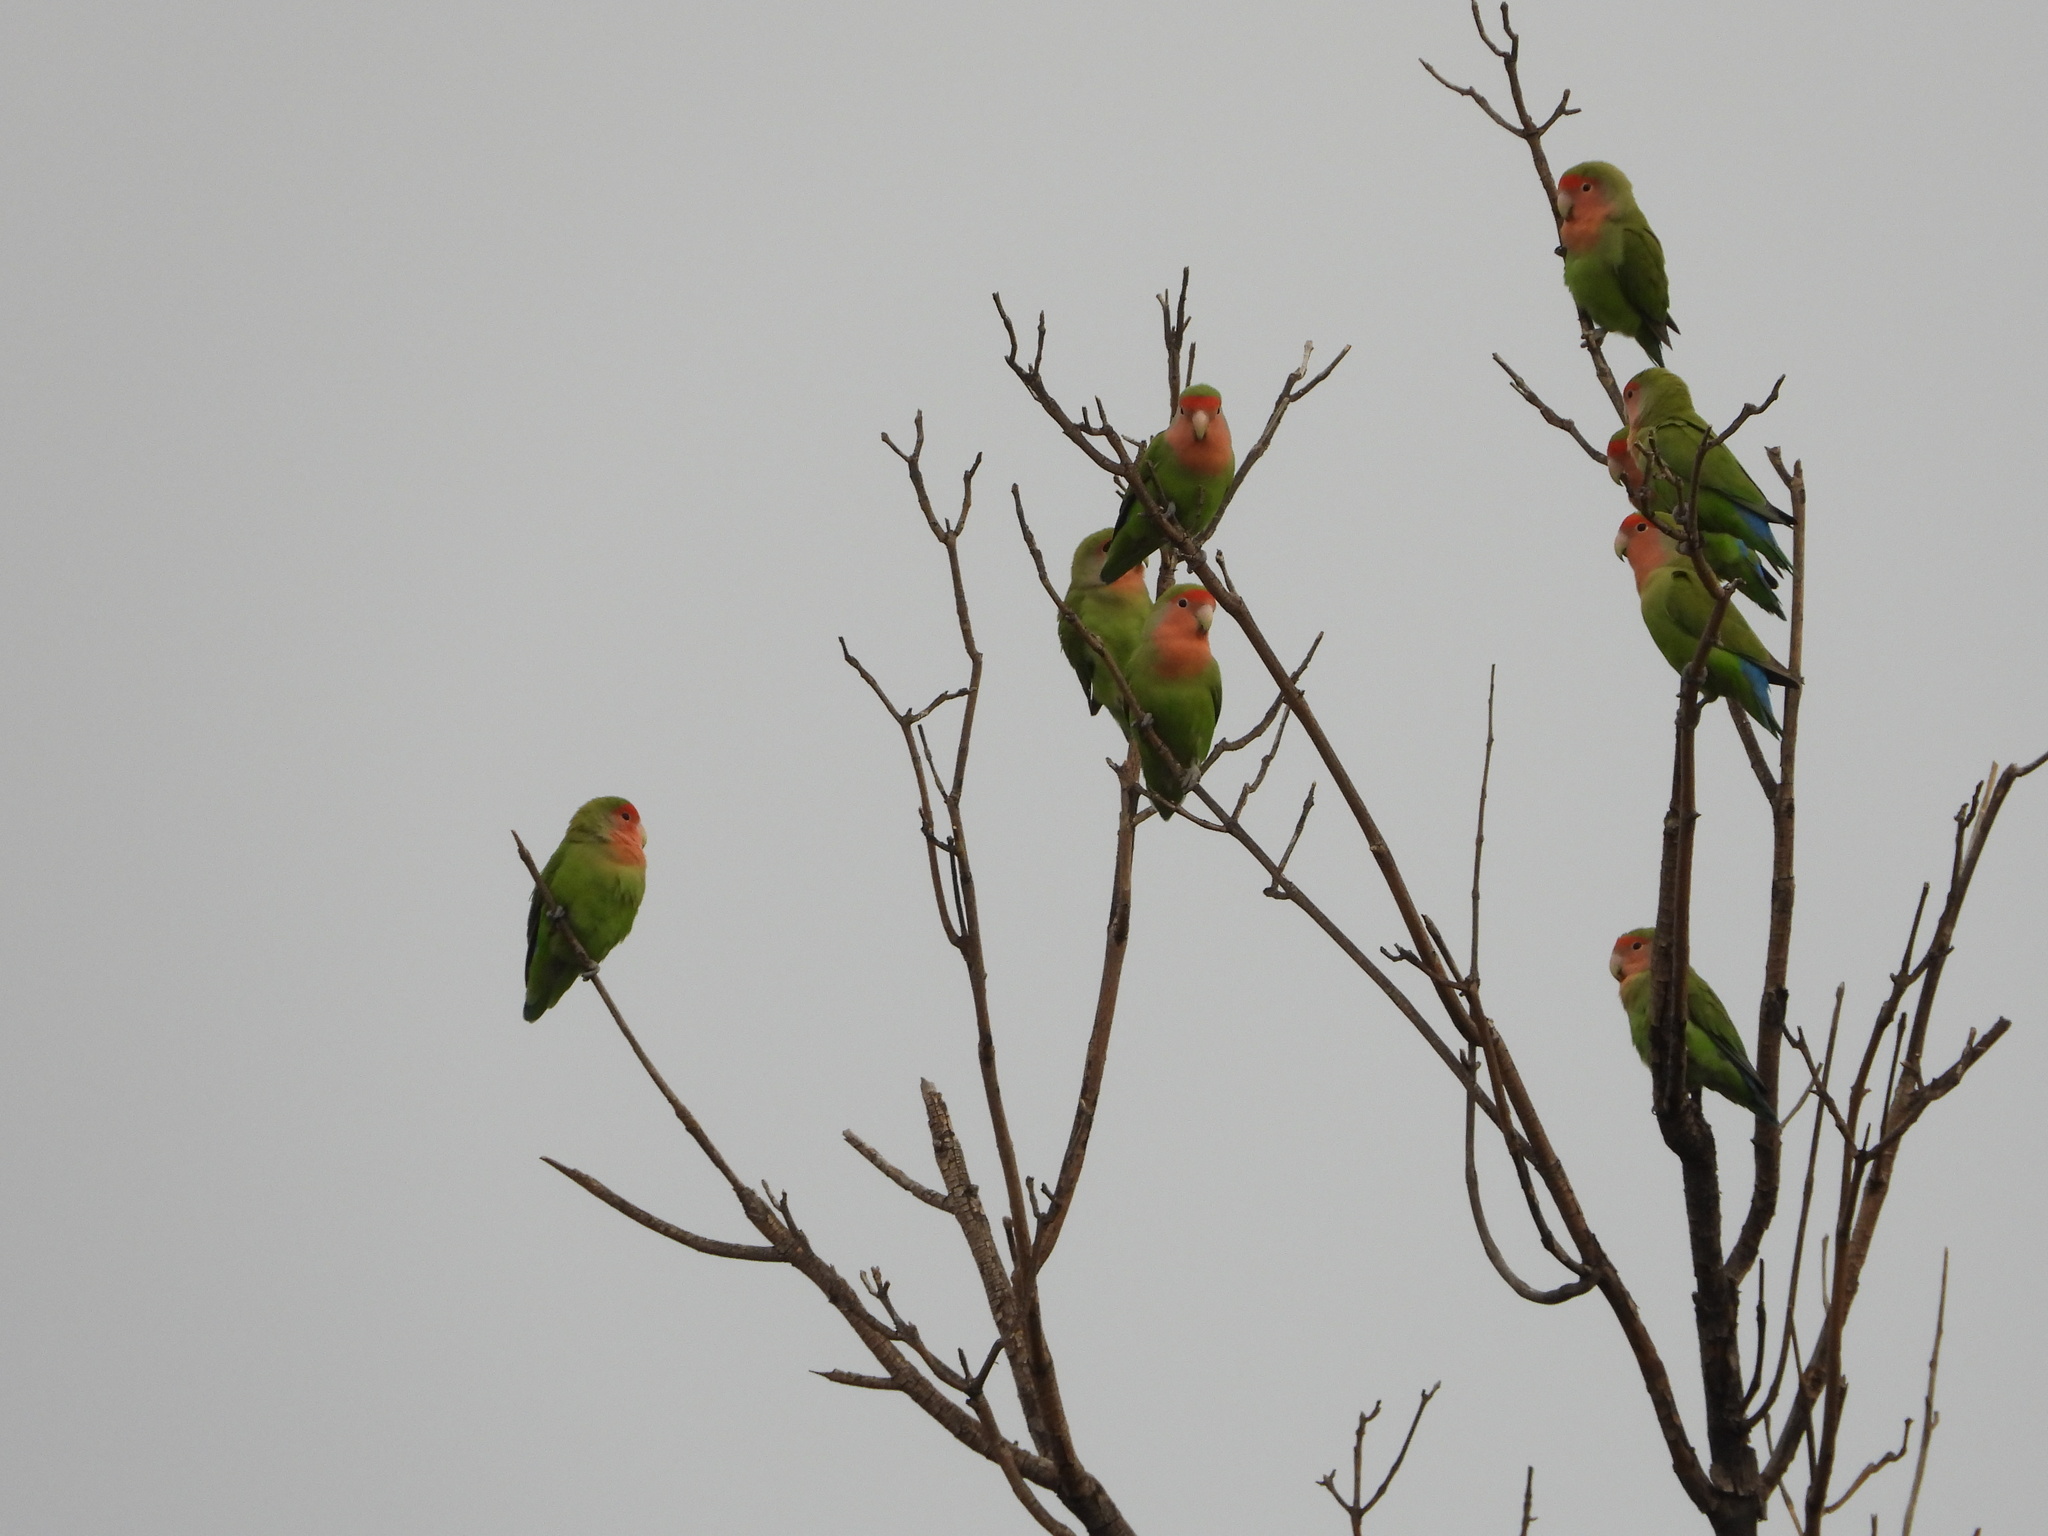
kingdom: Animalia
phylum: Chordata
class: Aves
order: Psittaciformes
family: Psittacidae
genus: Agapornis
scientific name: Agapornis roseicollis
